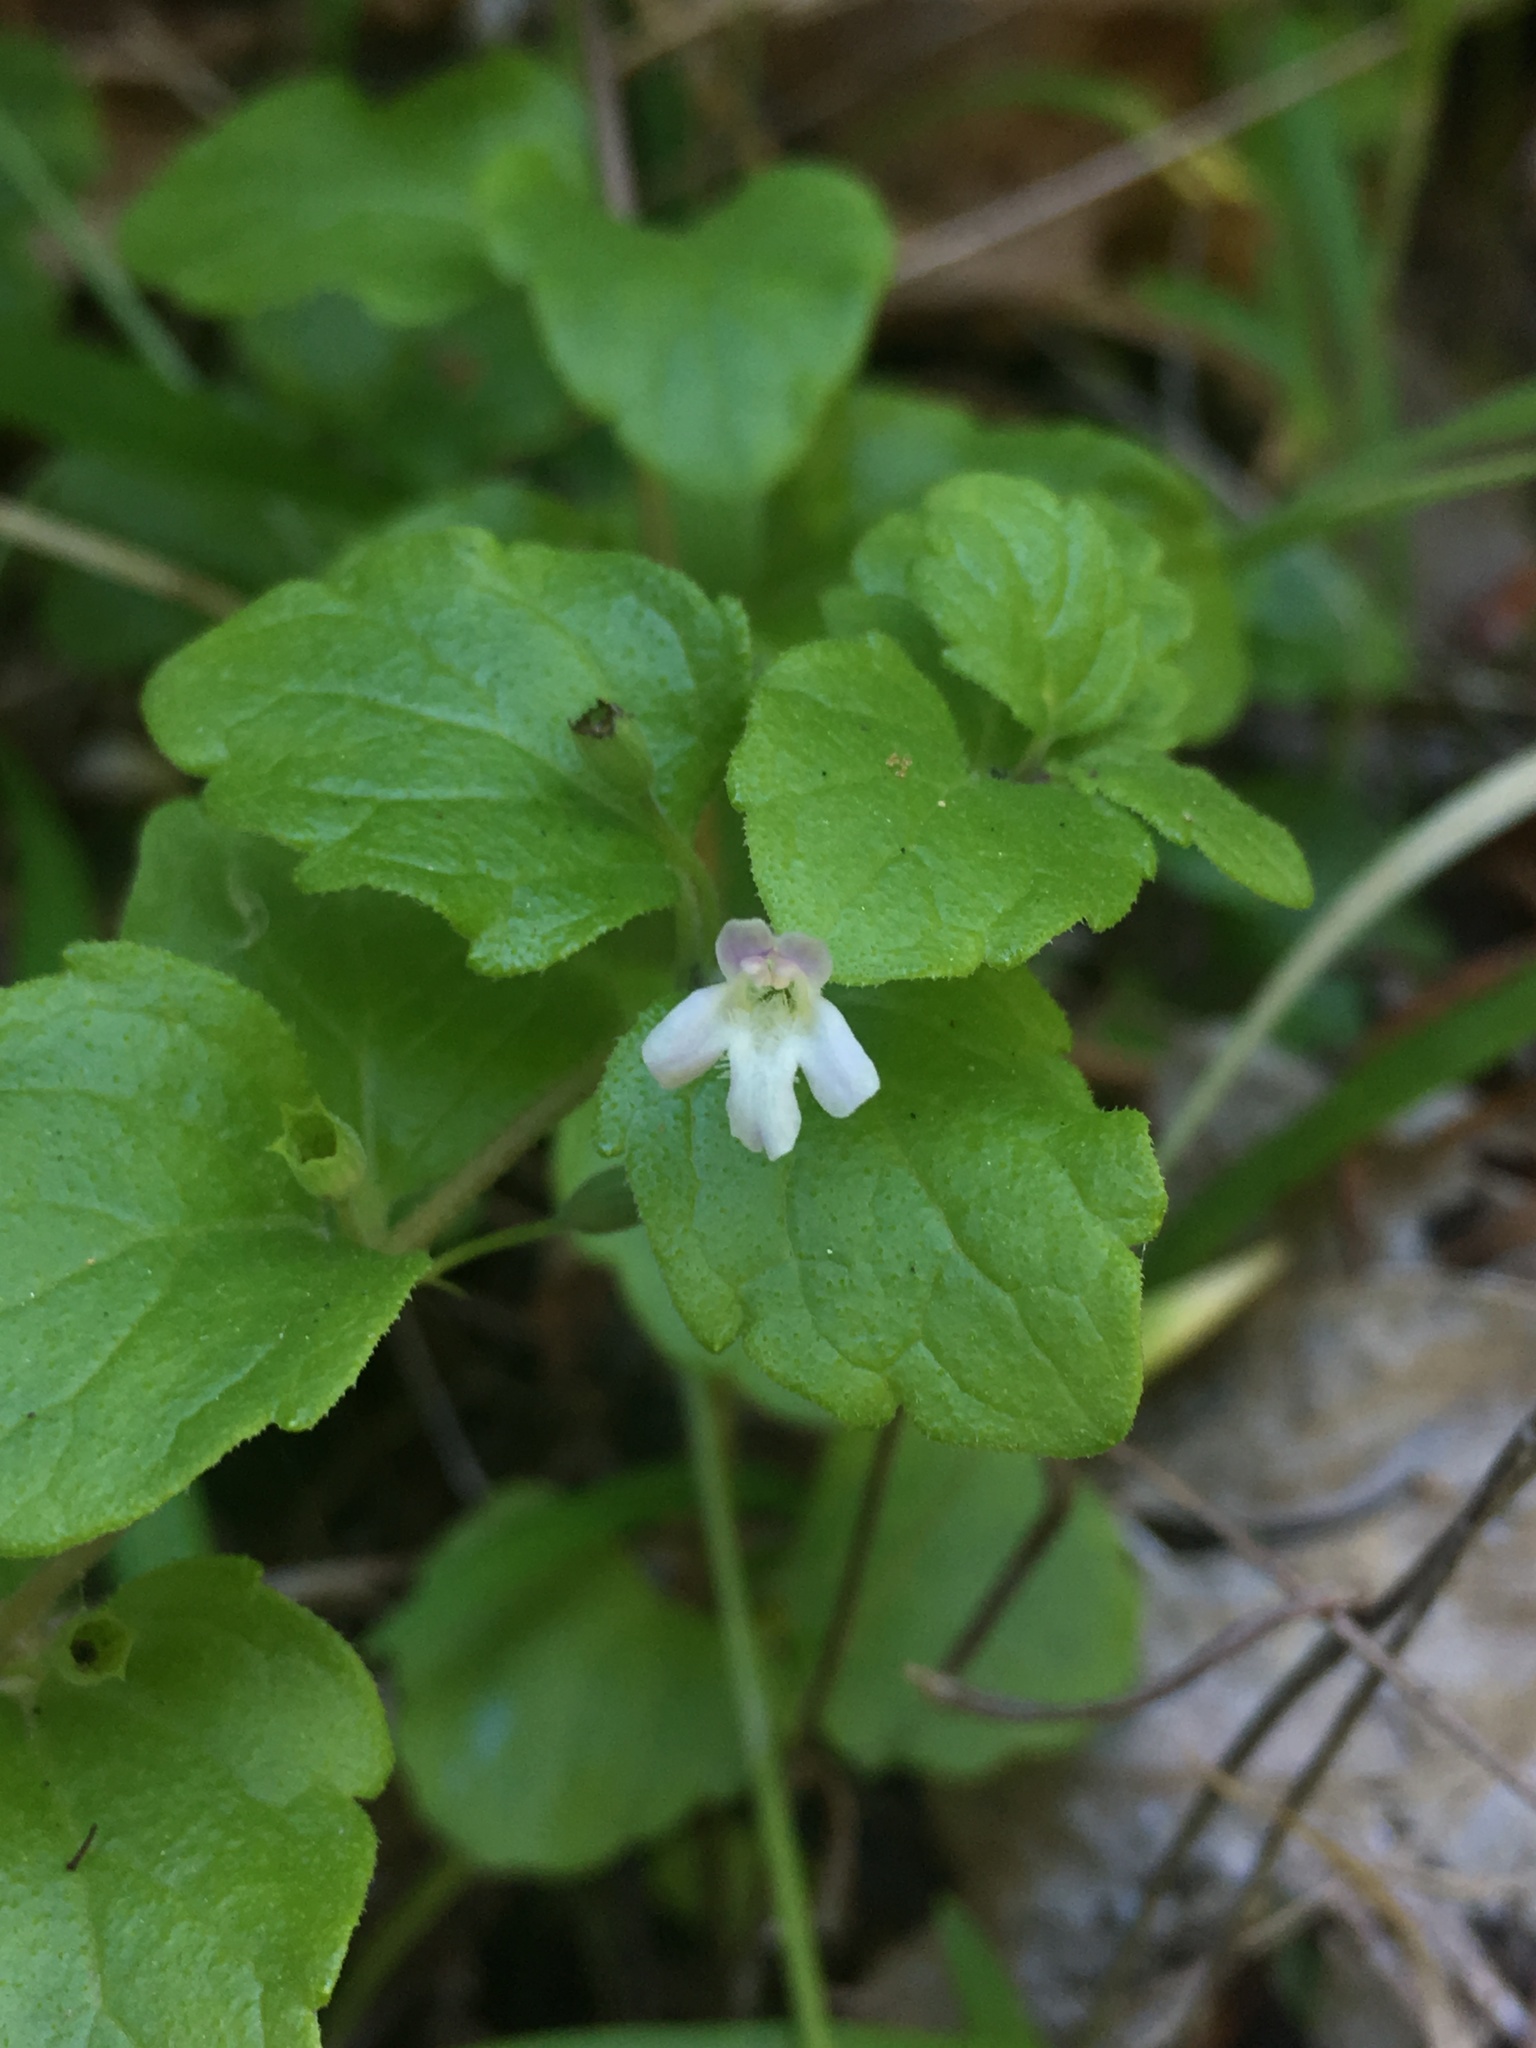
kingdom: Plantae
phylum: Tracheophyta
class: Magnoliopsida
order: Lamiales
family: Lamiaceae
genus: Micromeria
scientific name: Micromeria douglasii
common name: Yerba buena
